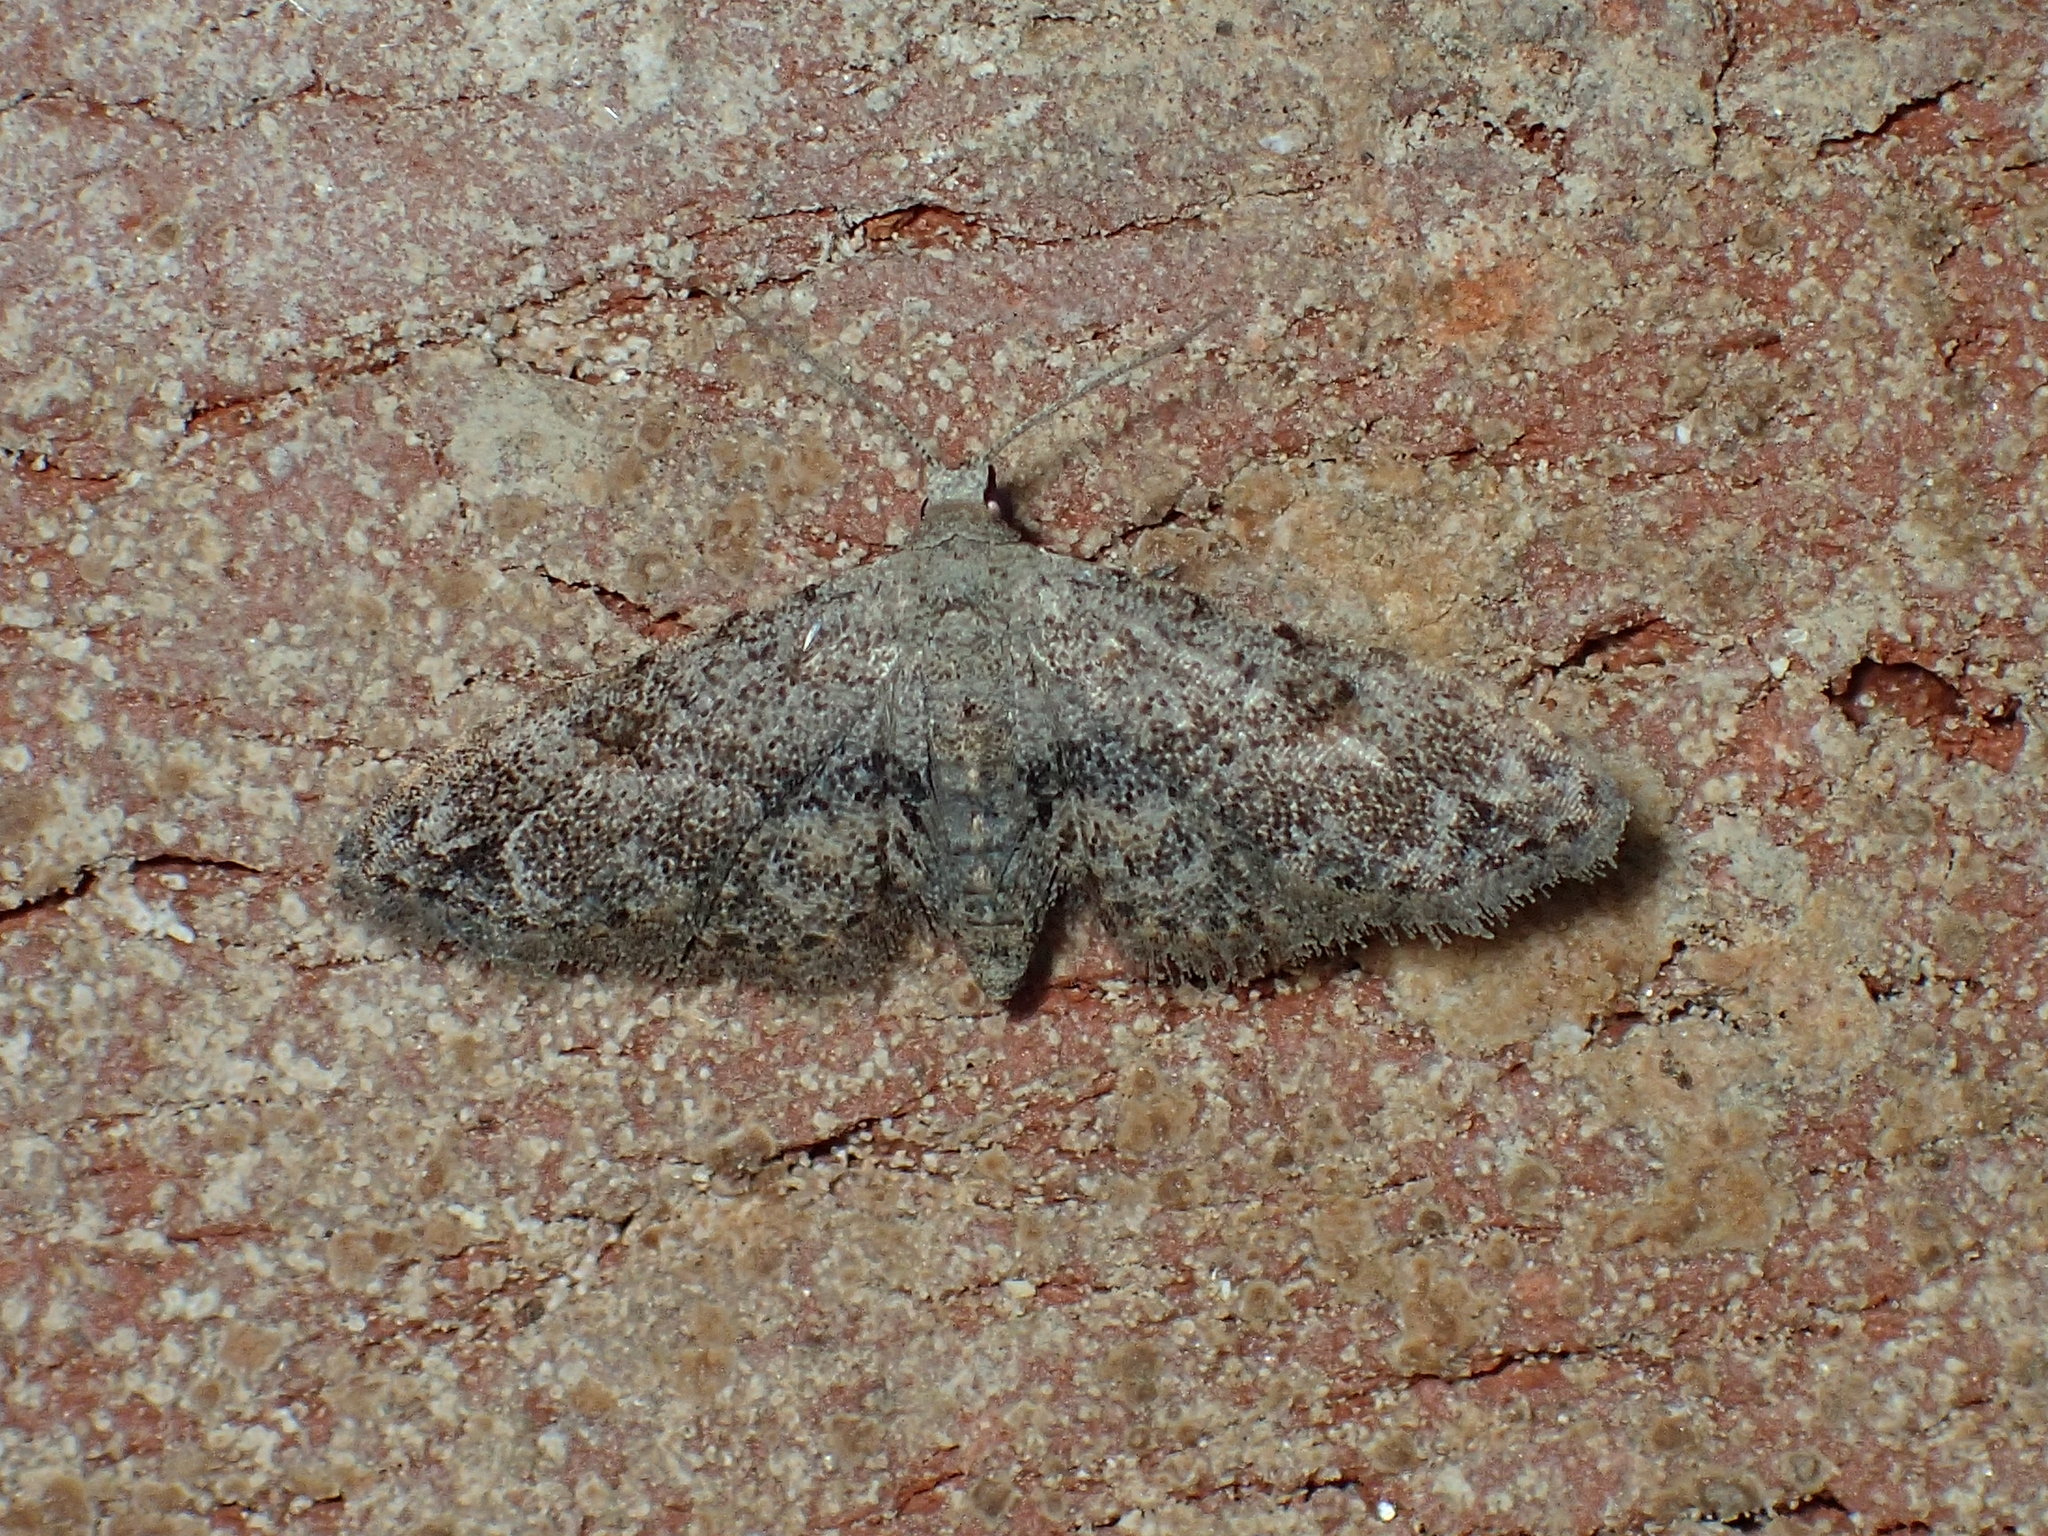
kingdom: Animalia
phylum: Arthropoda
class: Insecta
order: Lepidoptera
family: Erebidae
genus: Sigela
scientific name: Sigela brauneata
